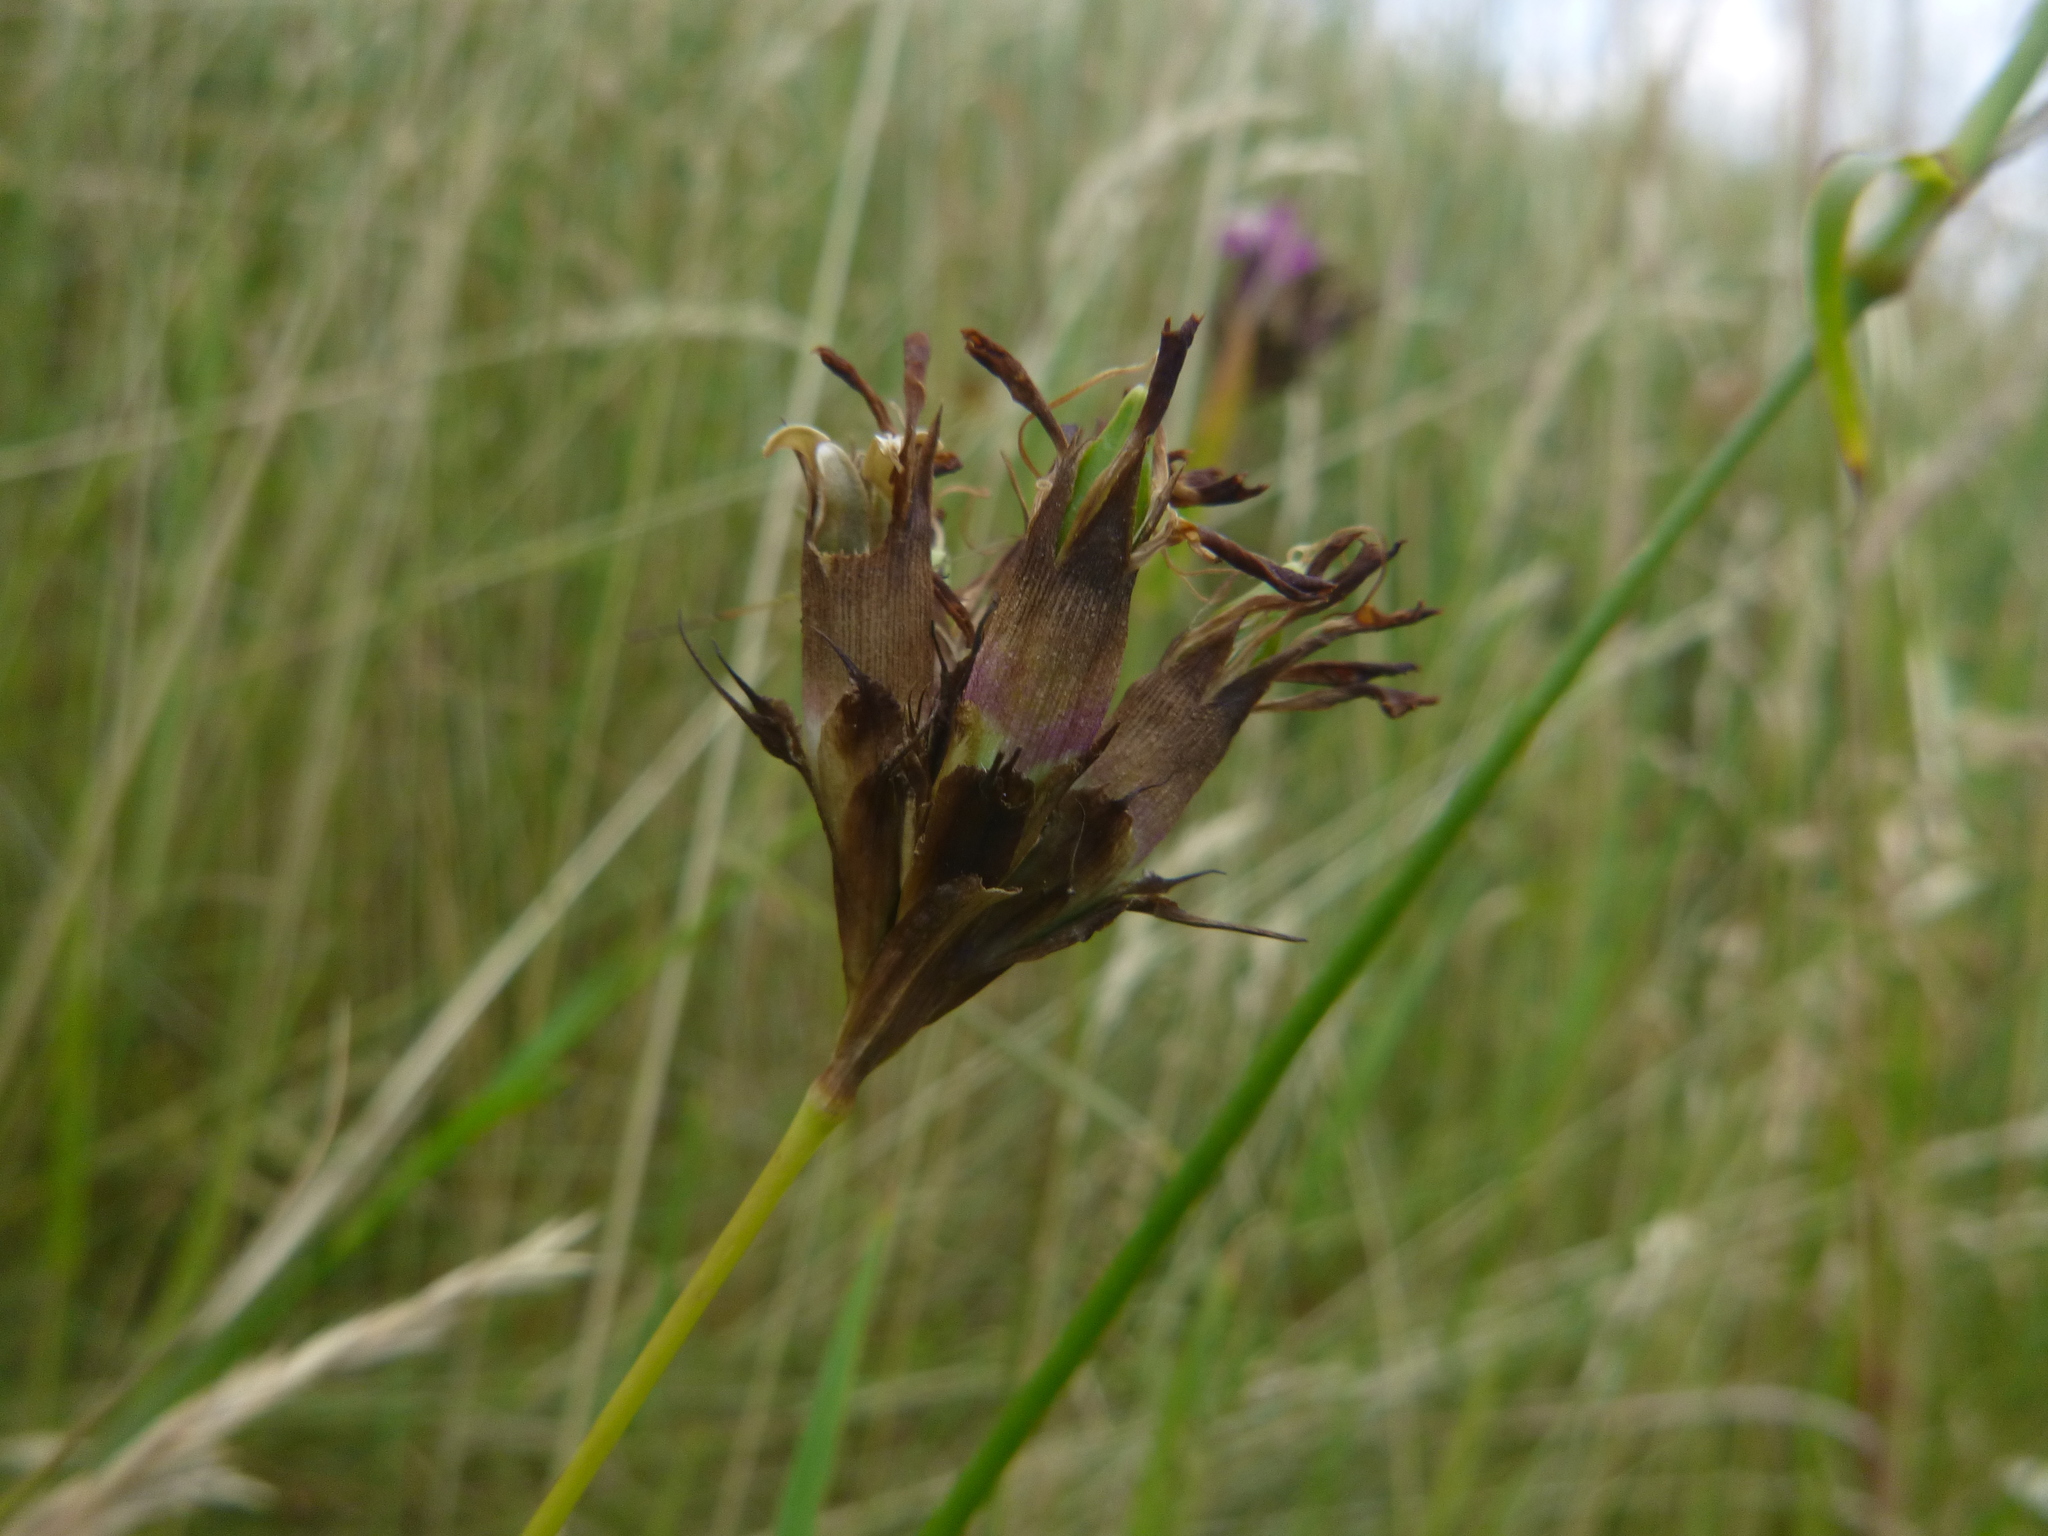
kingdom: Plantae
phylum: Tracheophyta
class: Magnoliopsida
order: Caryophyllales
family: Caryophyllaceae
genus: Dianthus
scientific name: Dianthus carthusianorum
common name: Carthusian pink
